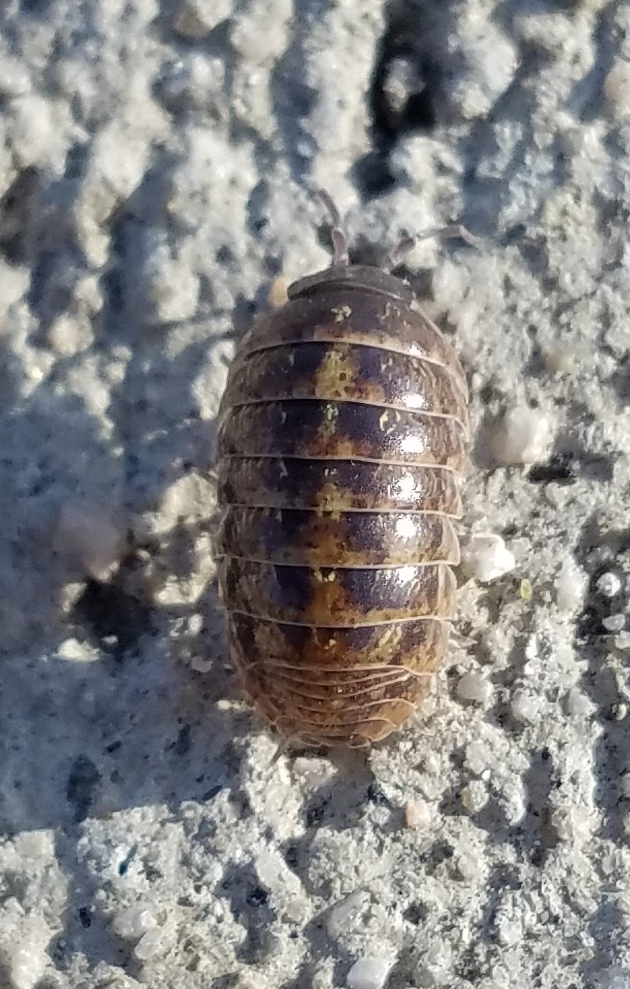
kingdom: Animalia
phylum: Arthropoda
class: Malacostraca
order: Isopoda
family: Armadillidiidae
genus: Armadillidium
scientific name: Armadillidium vulgare
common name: Common pill woodlouse
